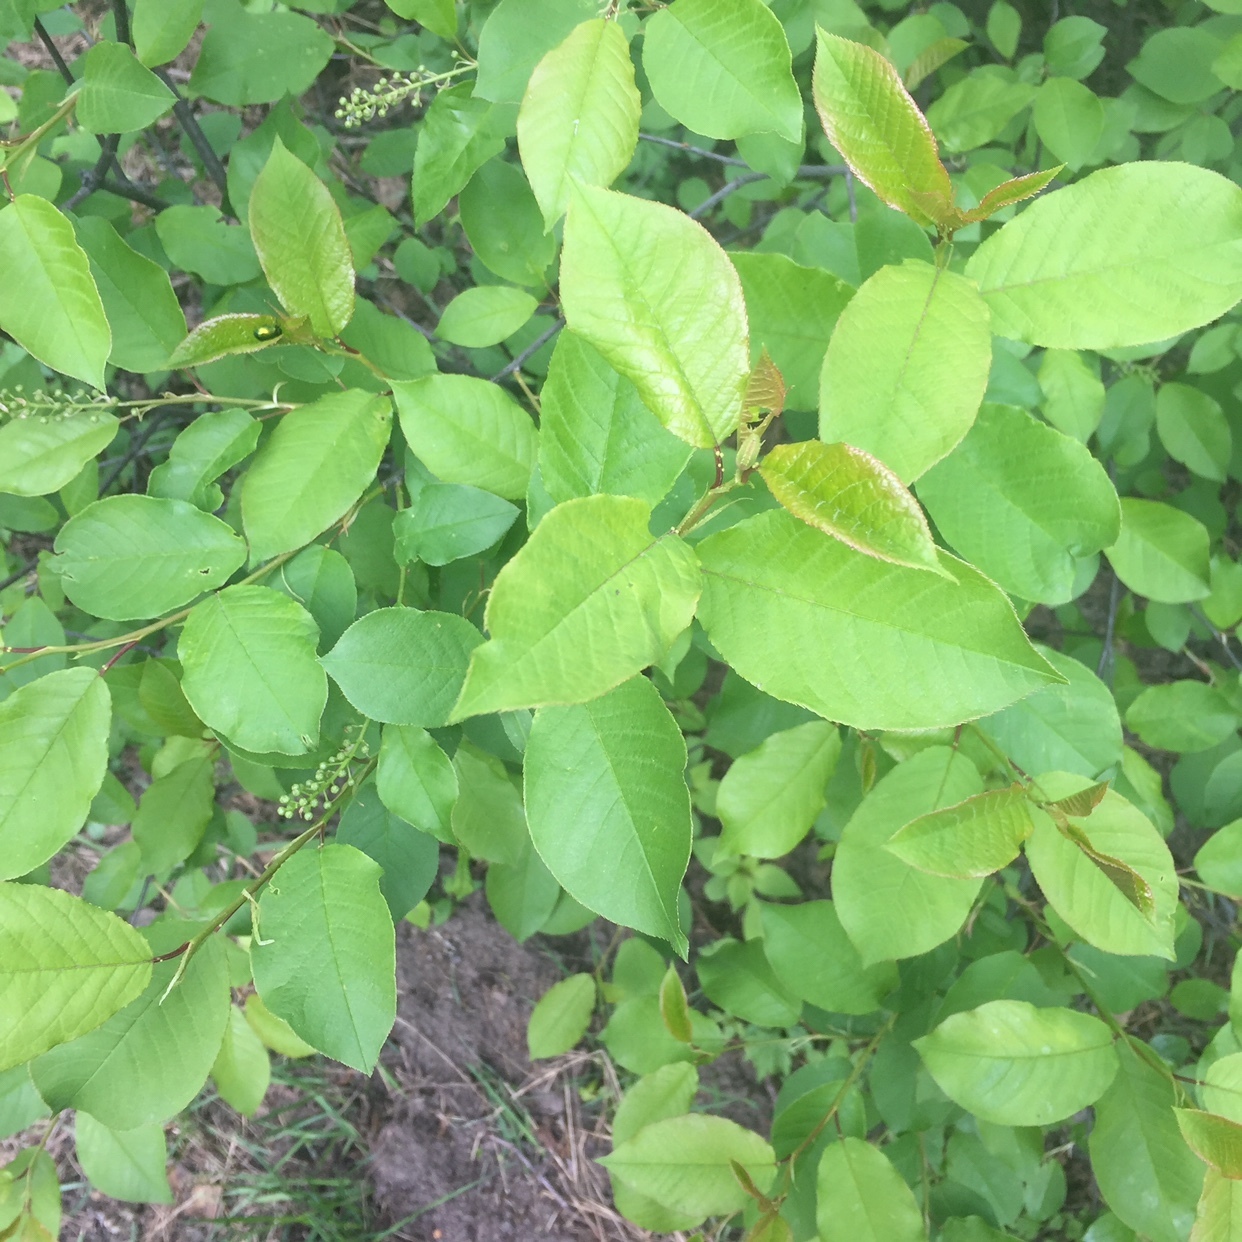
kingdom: Plantae
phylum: Tracheophyta
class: Magnoliopsida
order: Rosales
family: Rosaceae
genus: Prunus
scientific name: Prunus padus
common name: Bird cherry
